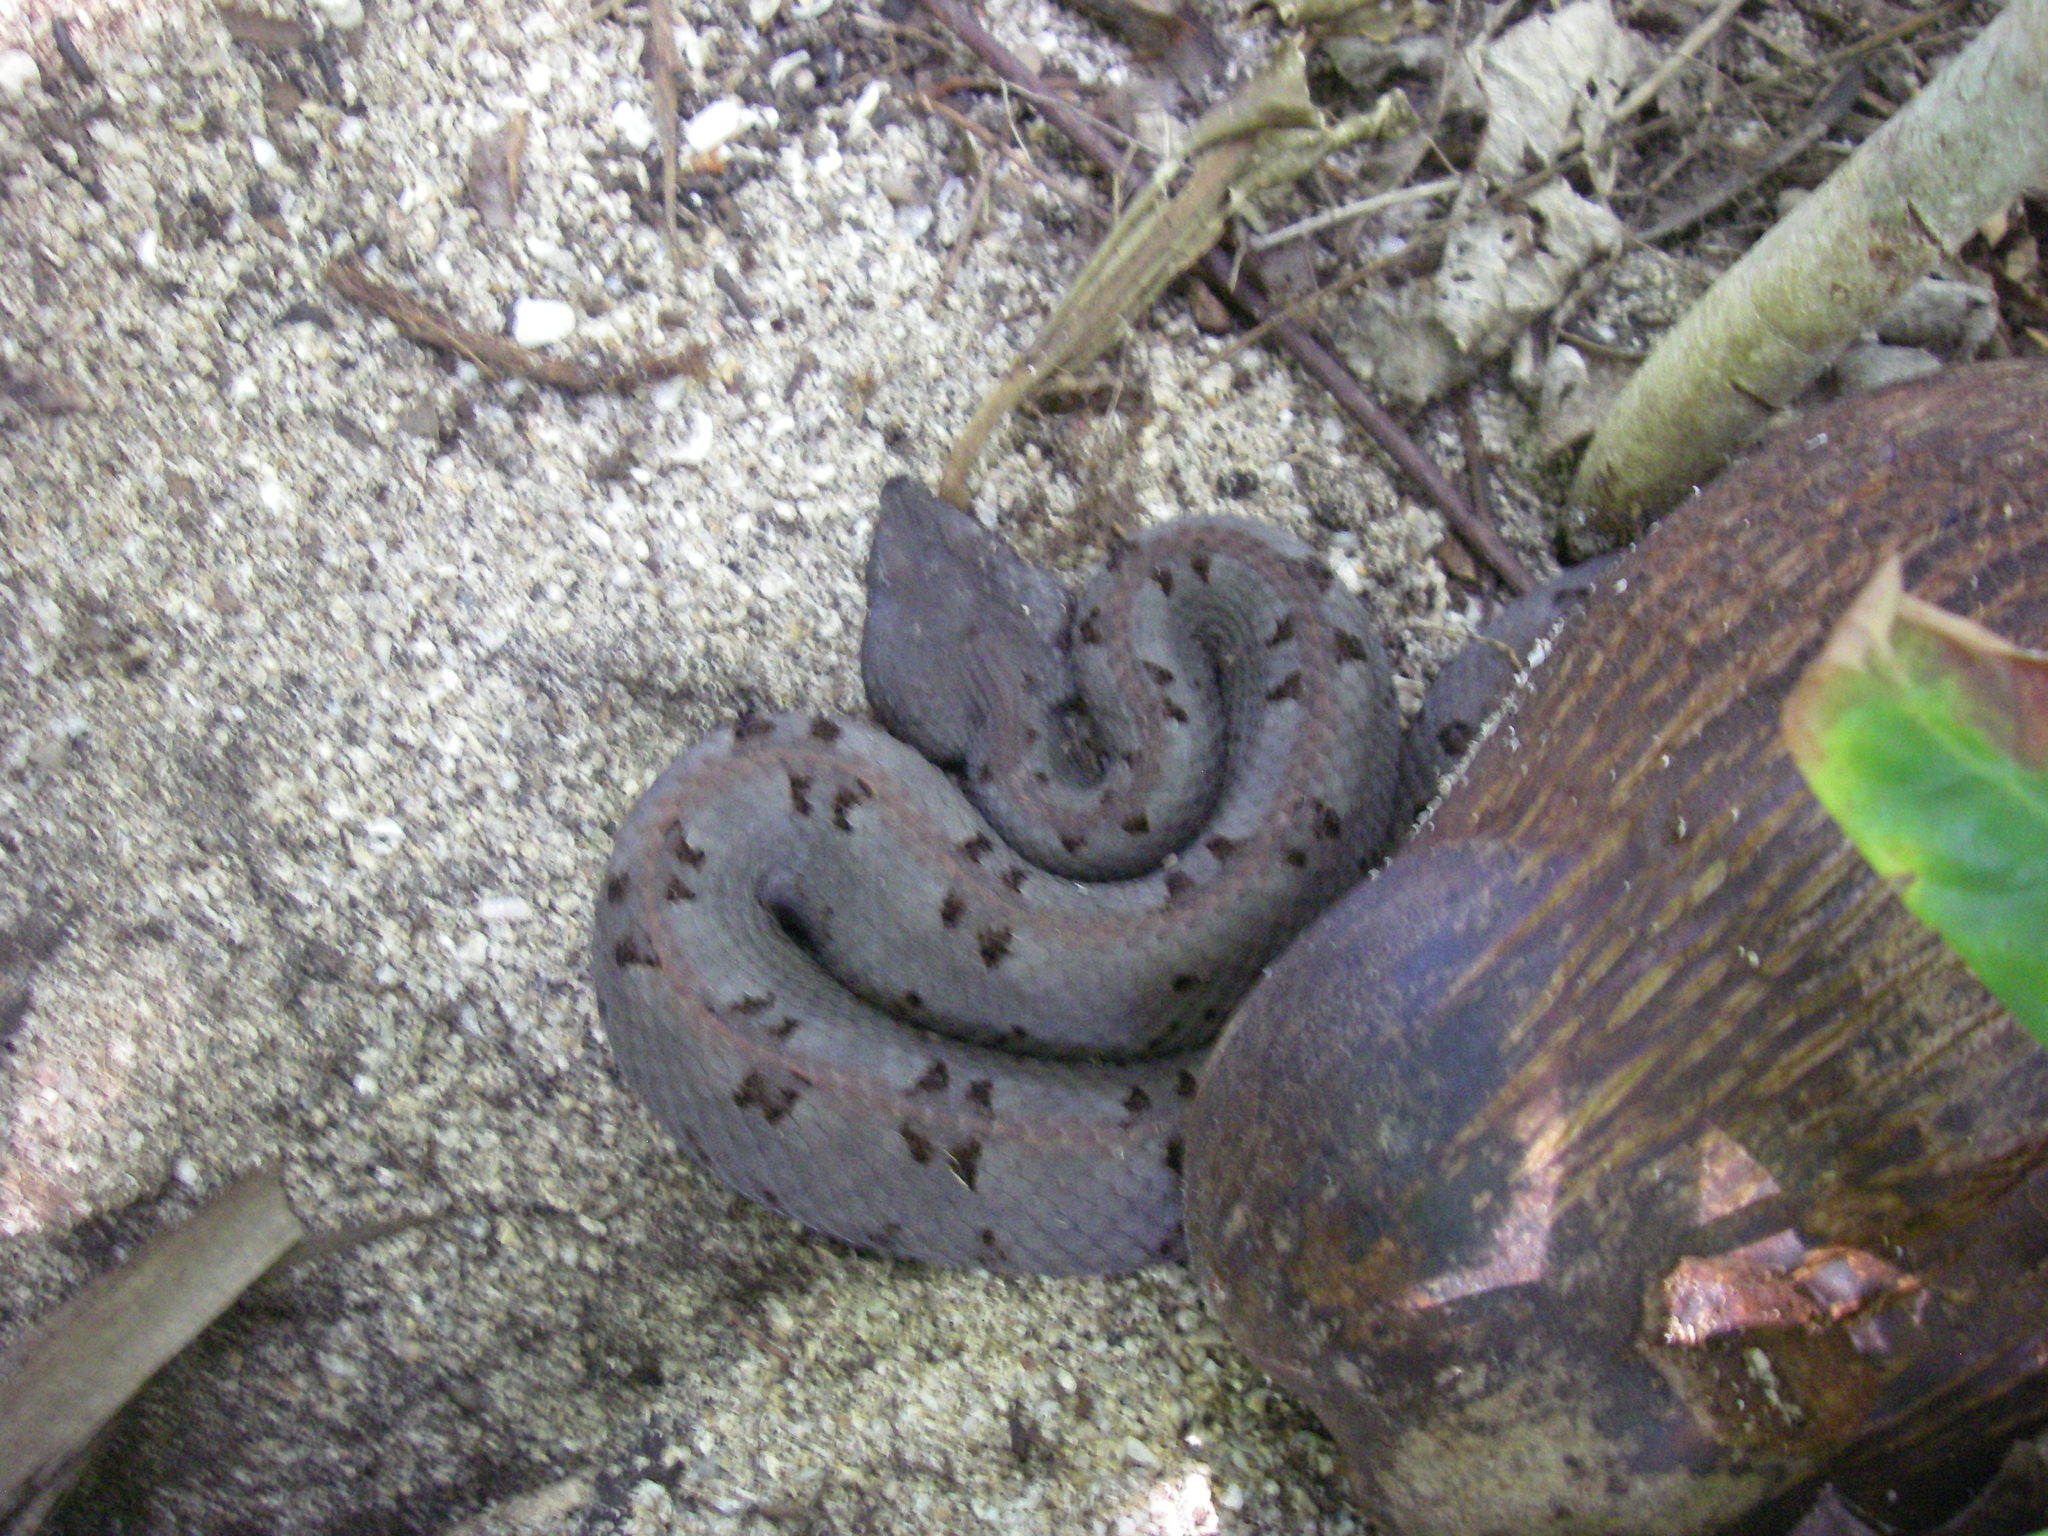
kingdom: Animalia
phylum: Chordata
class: Squamata
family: Viperidae
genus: Porthidium
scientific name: Porthidium nasutum
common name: Hognosed pit viper
